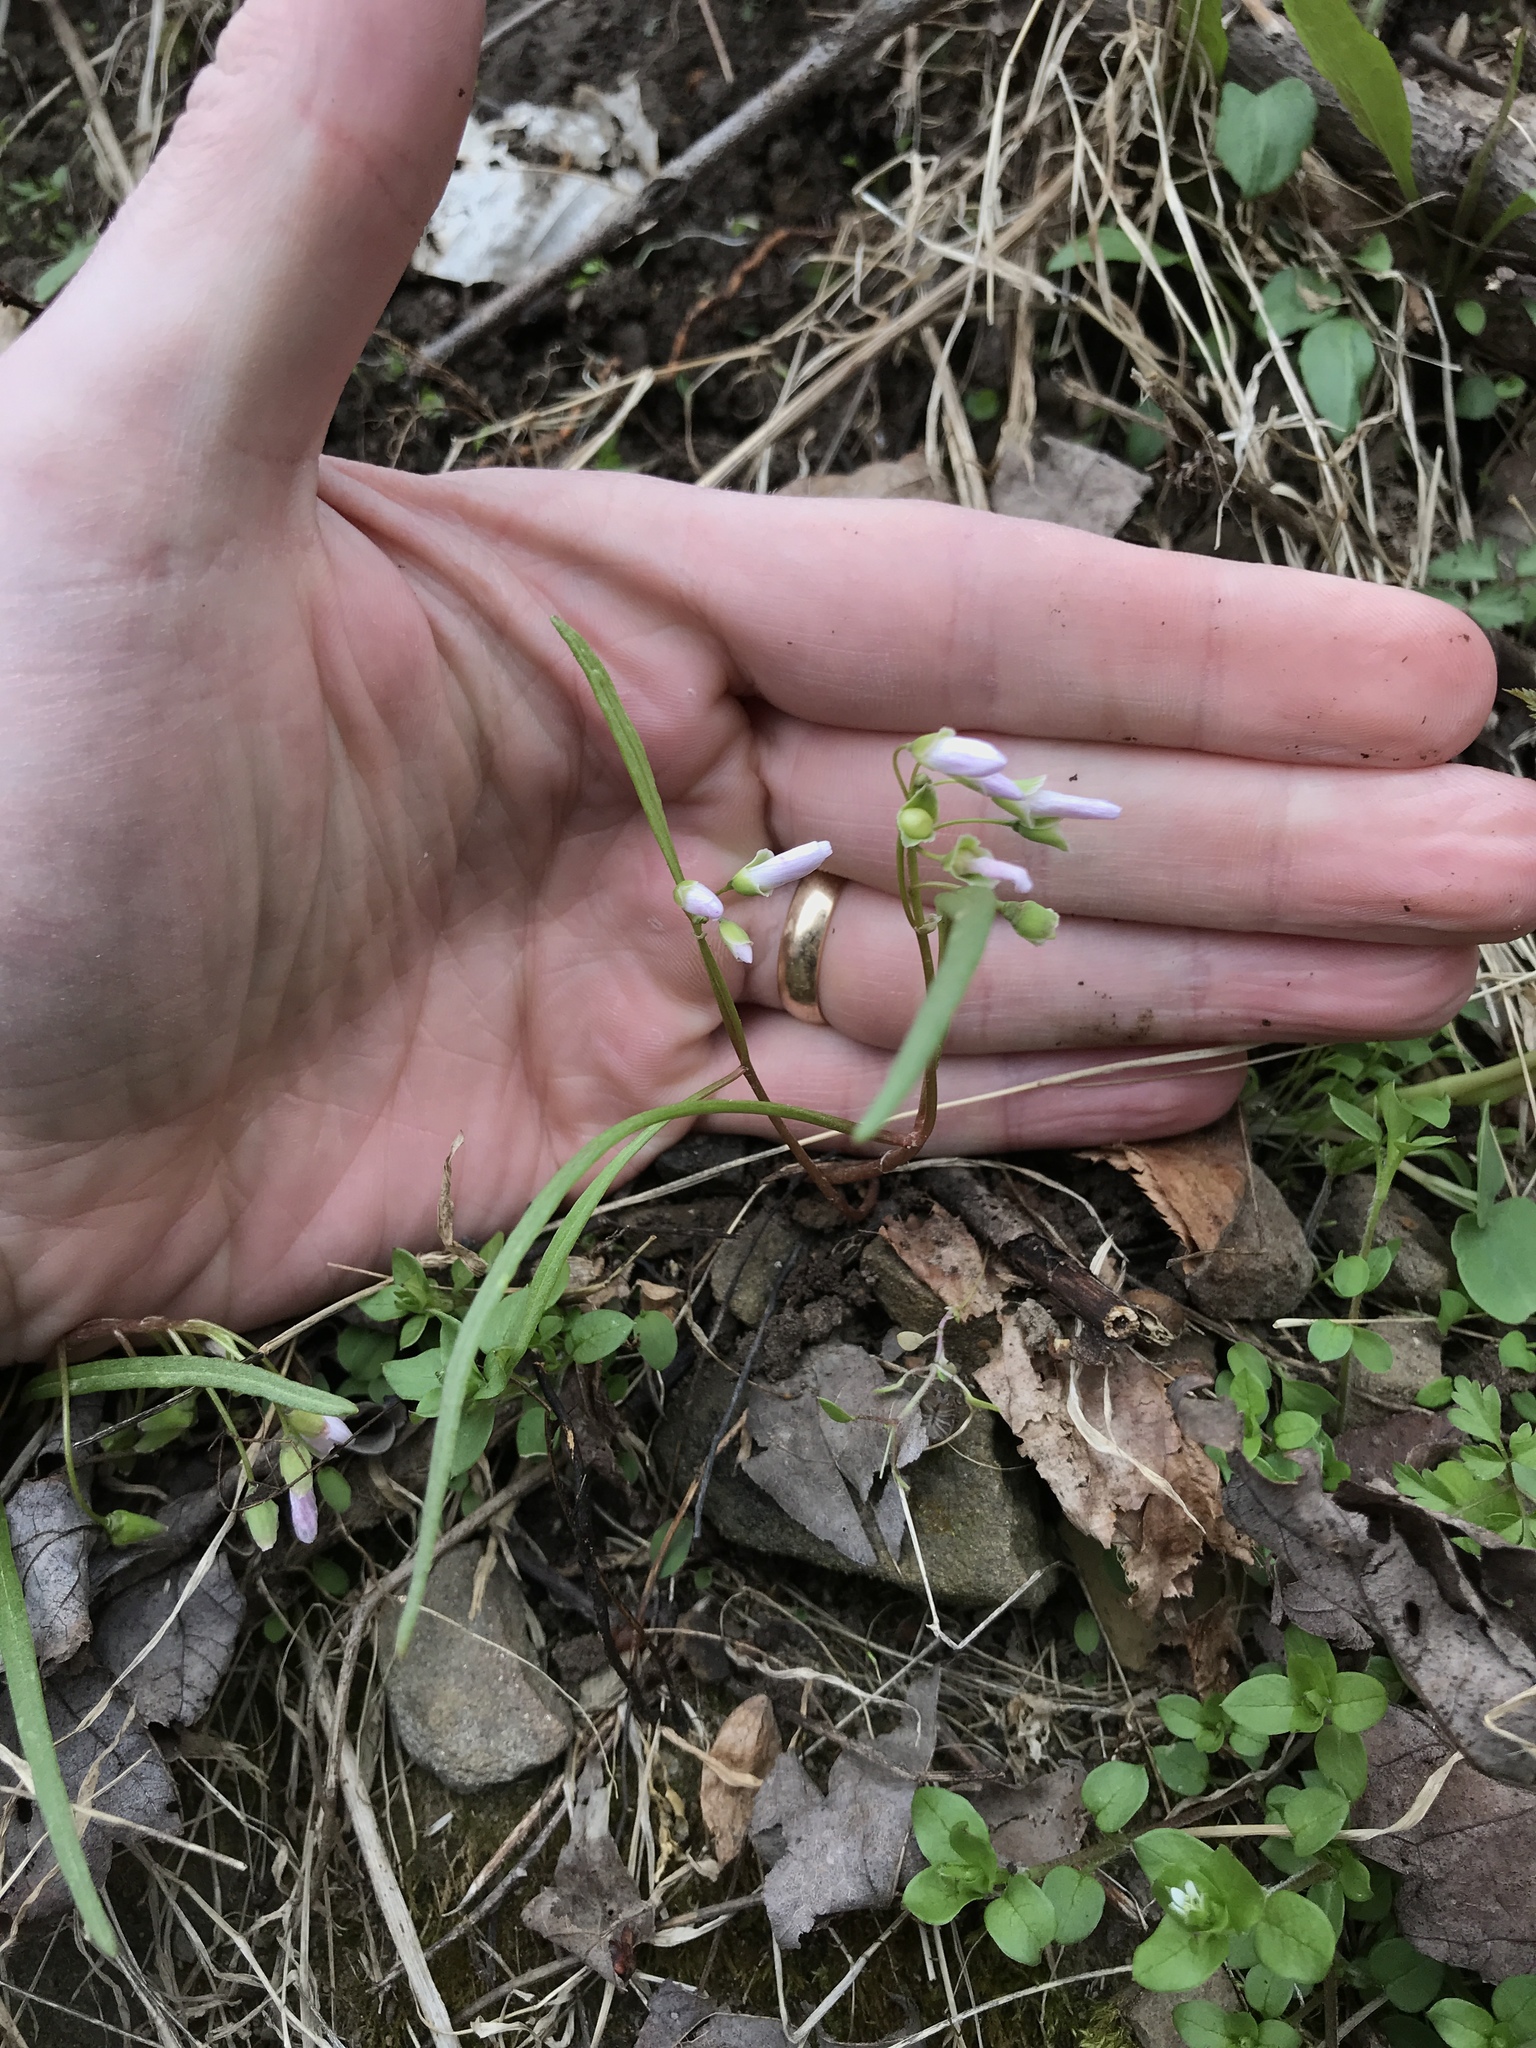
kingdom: Plantae
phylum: Tracheophyta
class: Magnoliopsida
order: Caryophyllales
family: Montiaceae
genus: Claytonia
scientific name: Claytonia virginica
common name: Virginia springbeauty
